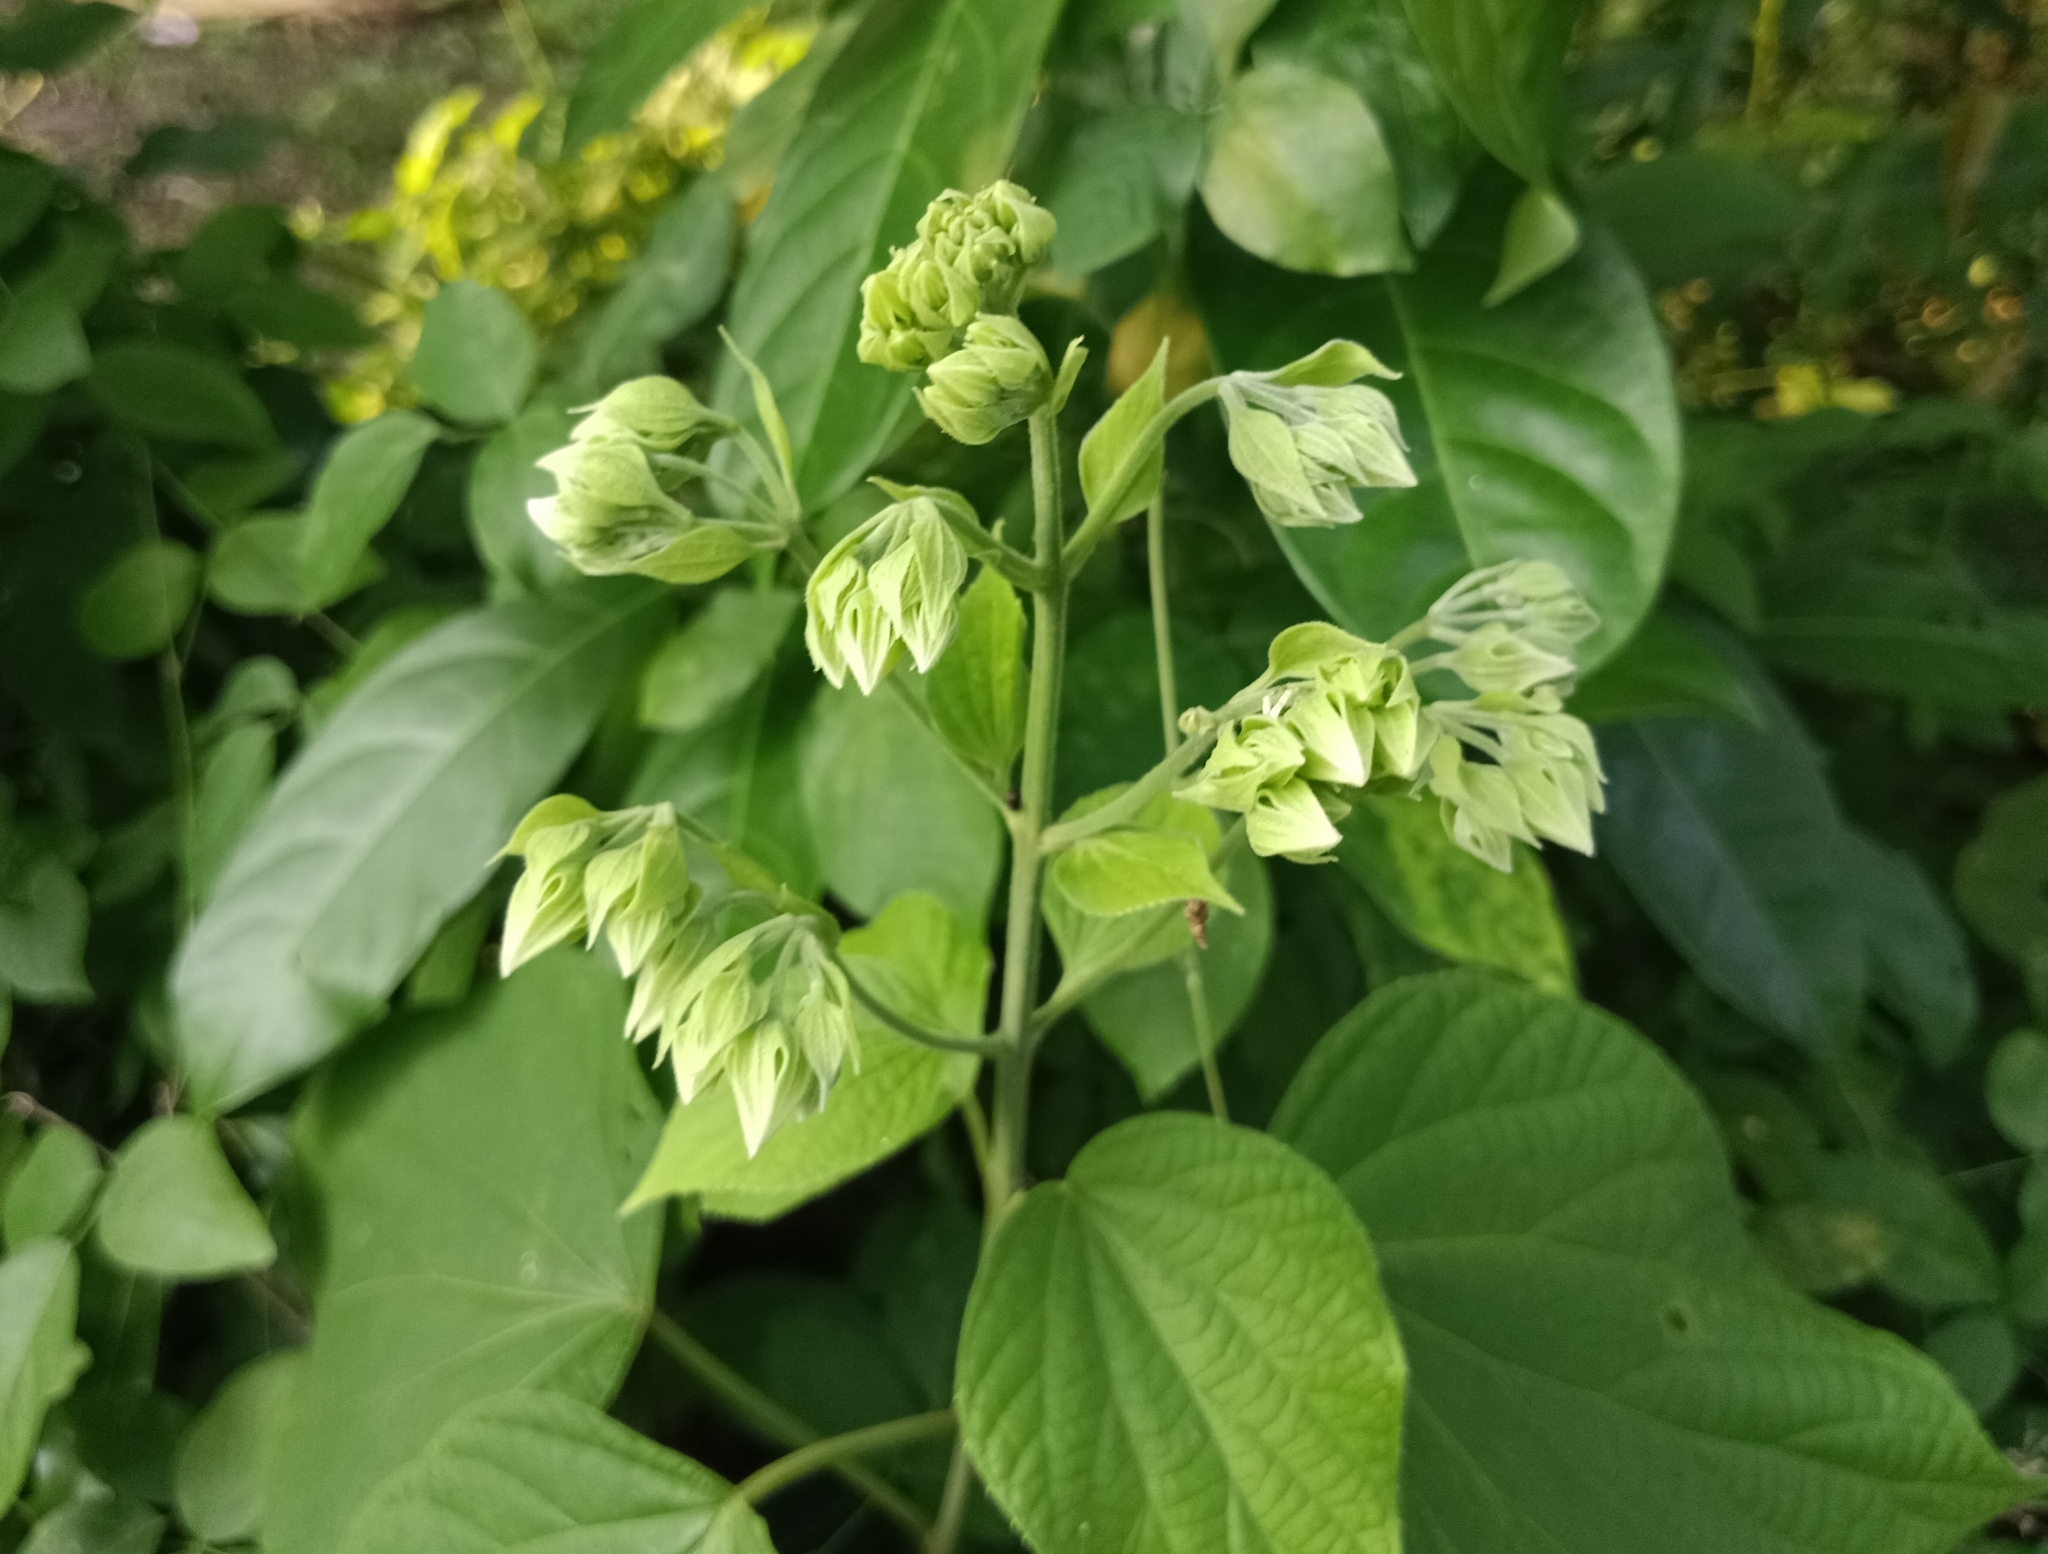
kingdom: Plantae
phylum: Tracheophyta
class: Magnoliopsida
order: Lamiales
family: Lamiaceae
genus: Clerodendrum
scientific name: Clerodendrum infortunatum
